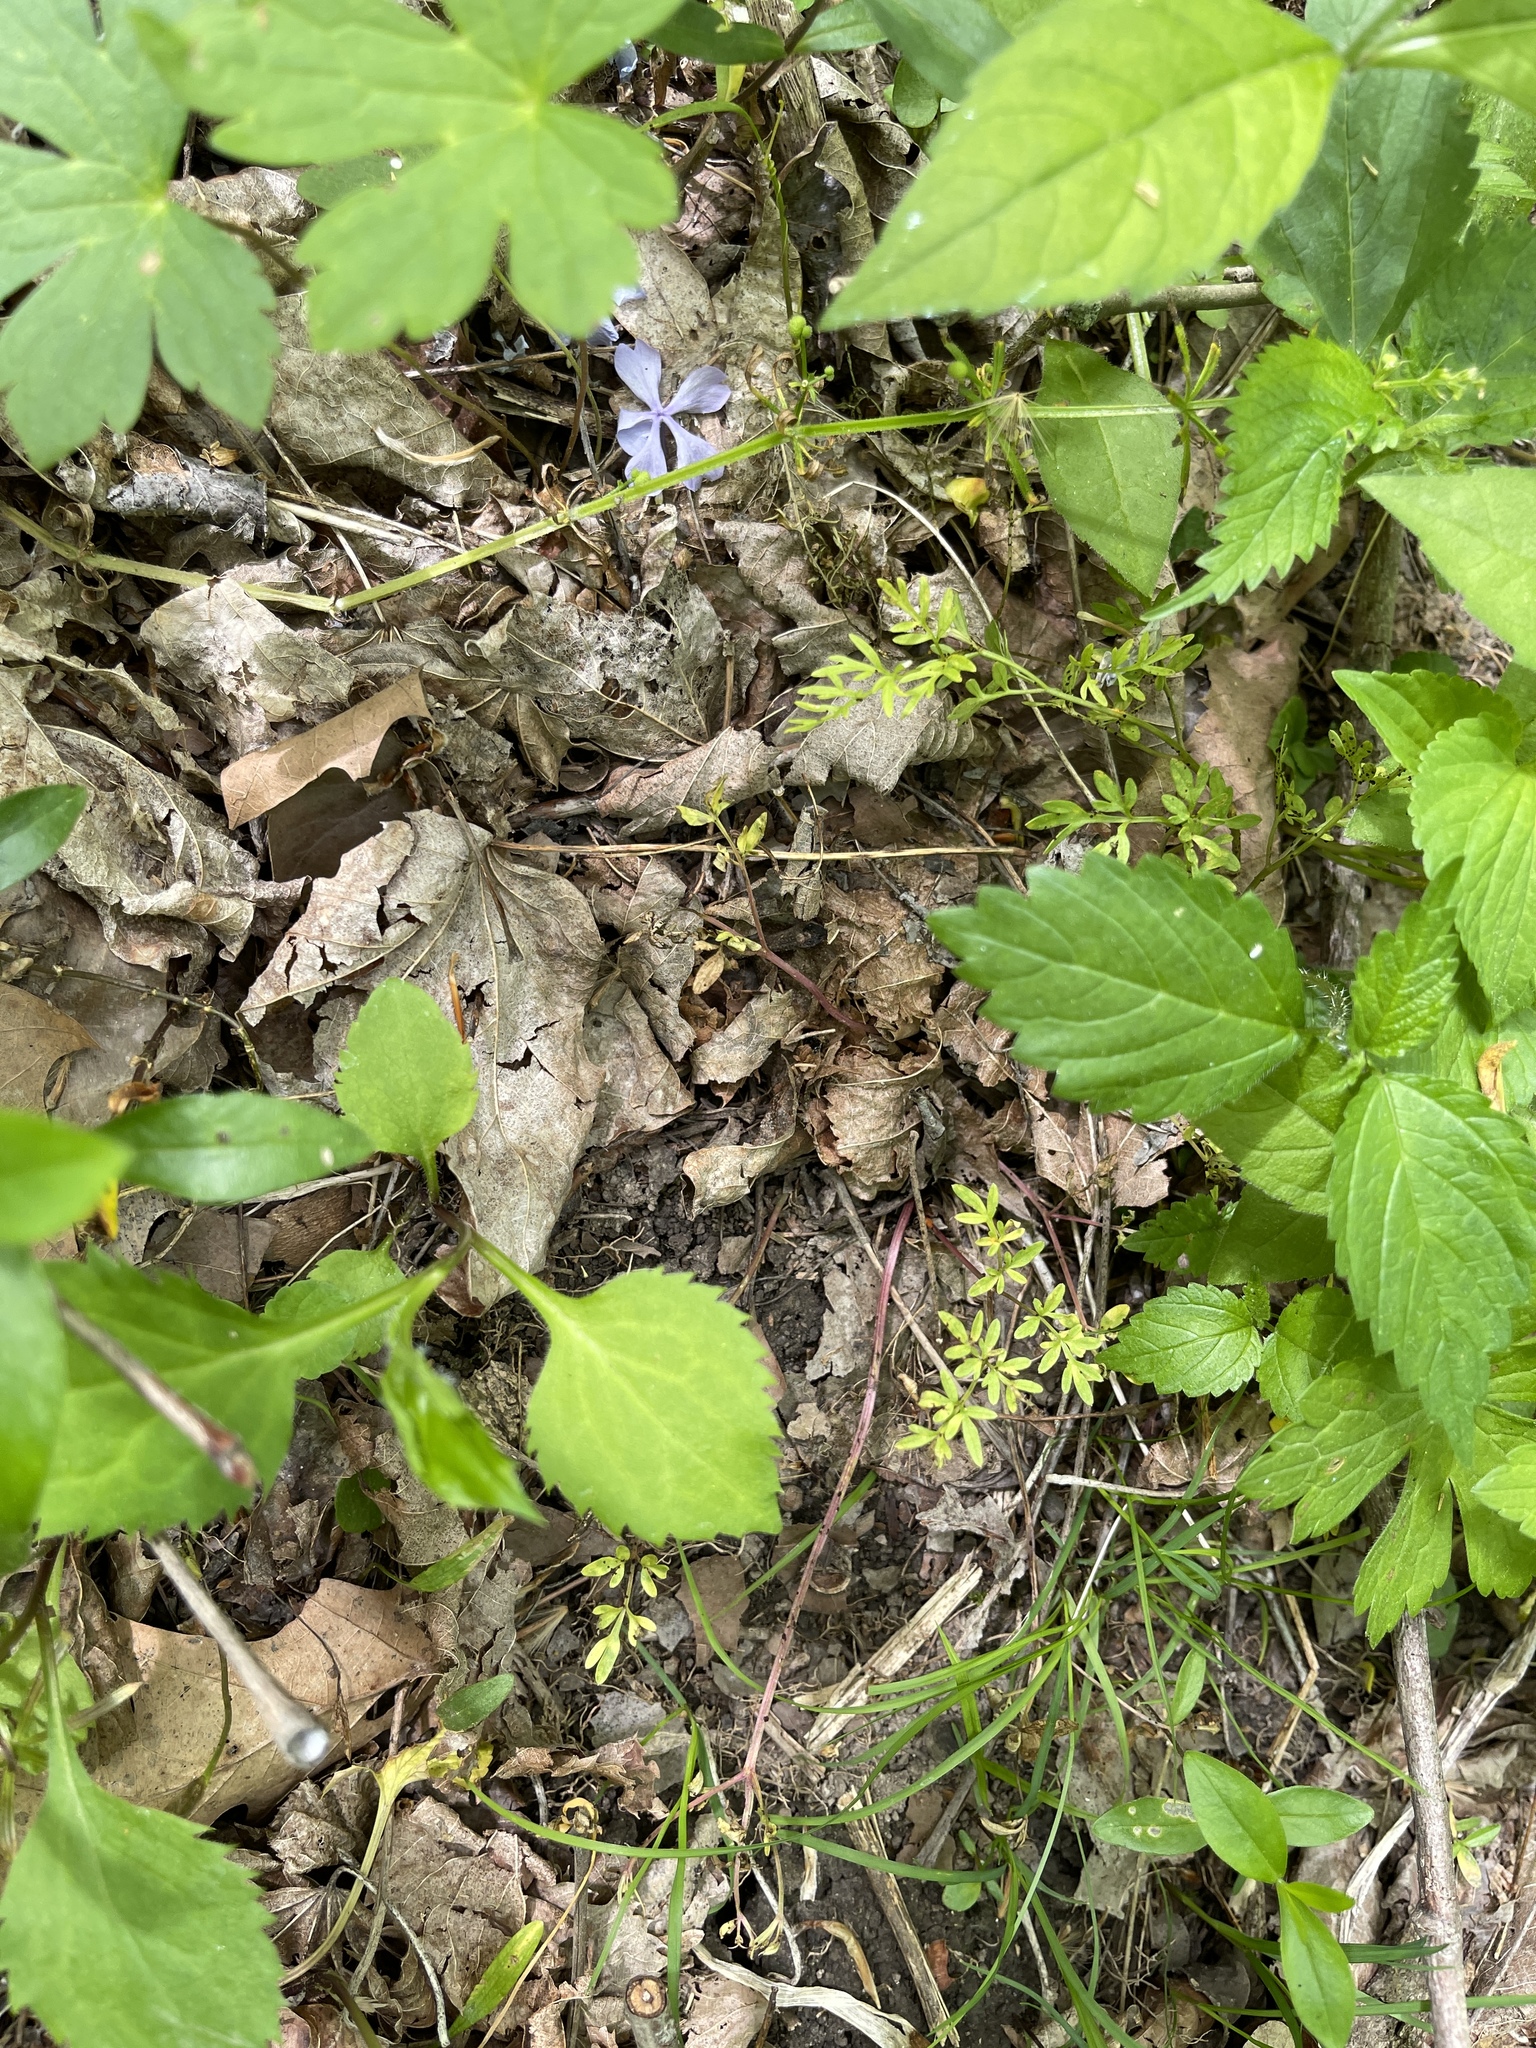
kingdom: Plantae
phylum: Tracheophyta
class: Magnoliopsida
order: Apiales
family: Apiaceae
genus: Erigenia
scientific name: Erigenia bulbosa
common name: Pepper-and-salt
